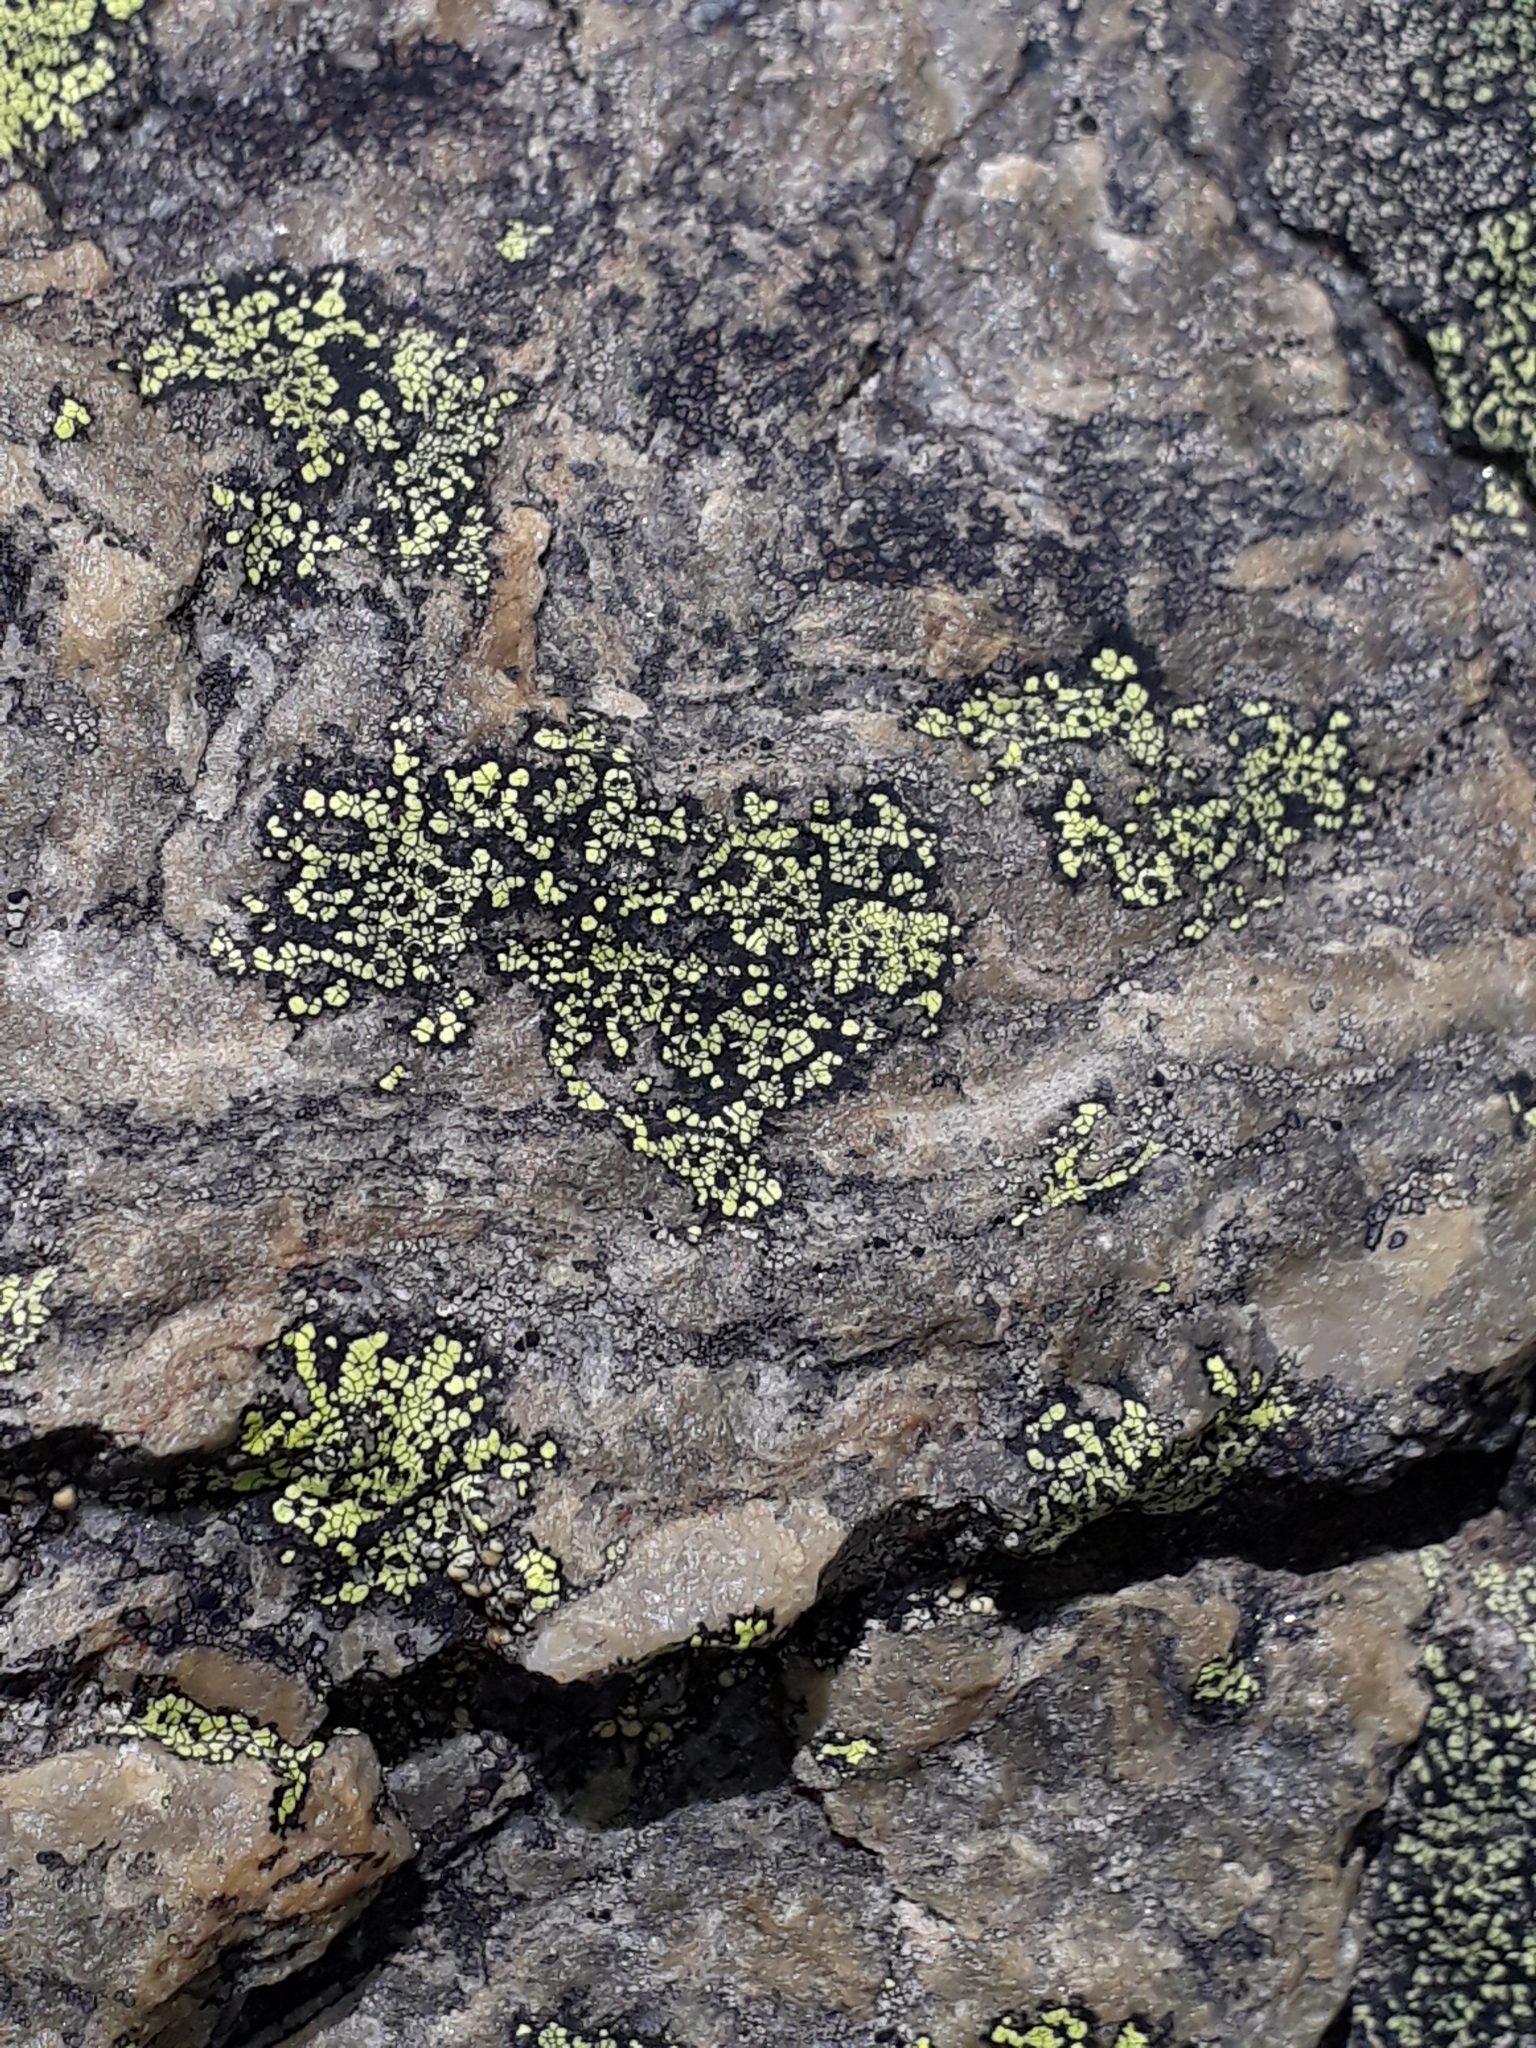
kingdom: Fungi
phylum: Ascomycota
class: Lecanoromycetes
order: Rhizocarpales
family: Rhizocarpaceae
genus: Rhizocarpon
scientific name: Rhizocarpon geographicum
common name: Yellow map lichen
